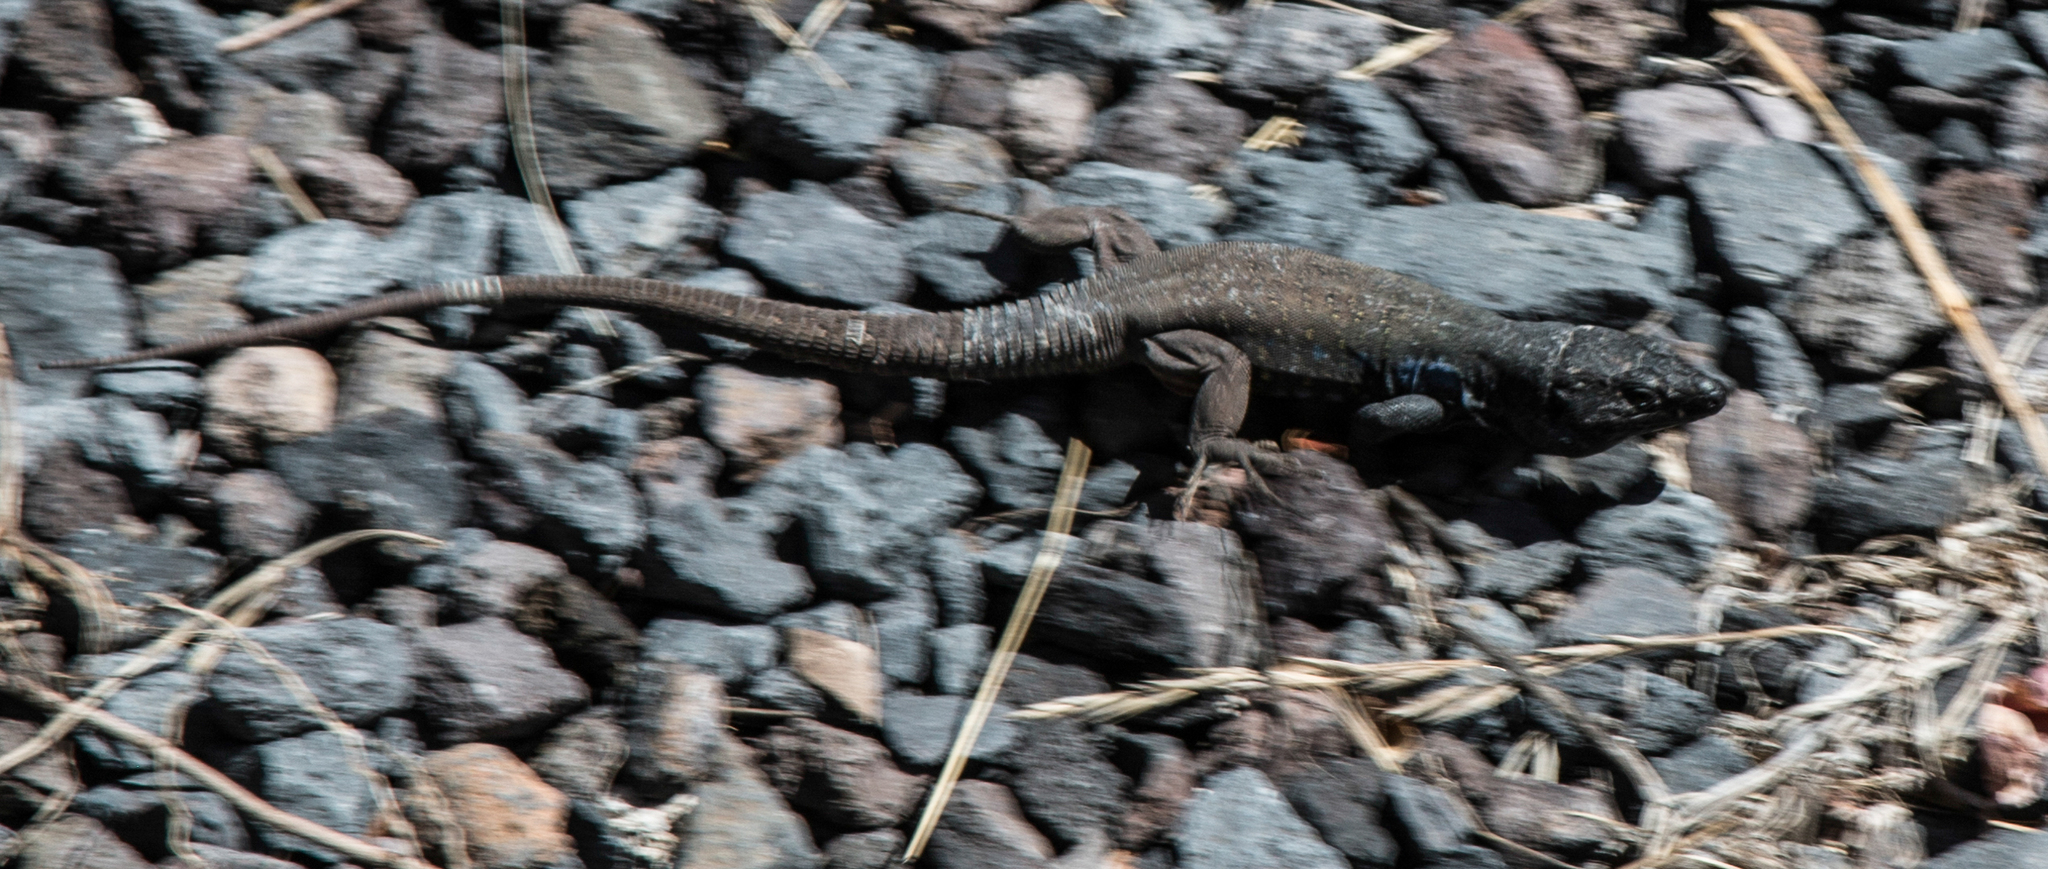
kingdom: Animalia
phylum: Chordata
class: Squamata
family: Lacertidae
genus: Gallotia
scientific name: Gallotia galloti
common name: Gallot's lizard
